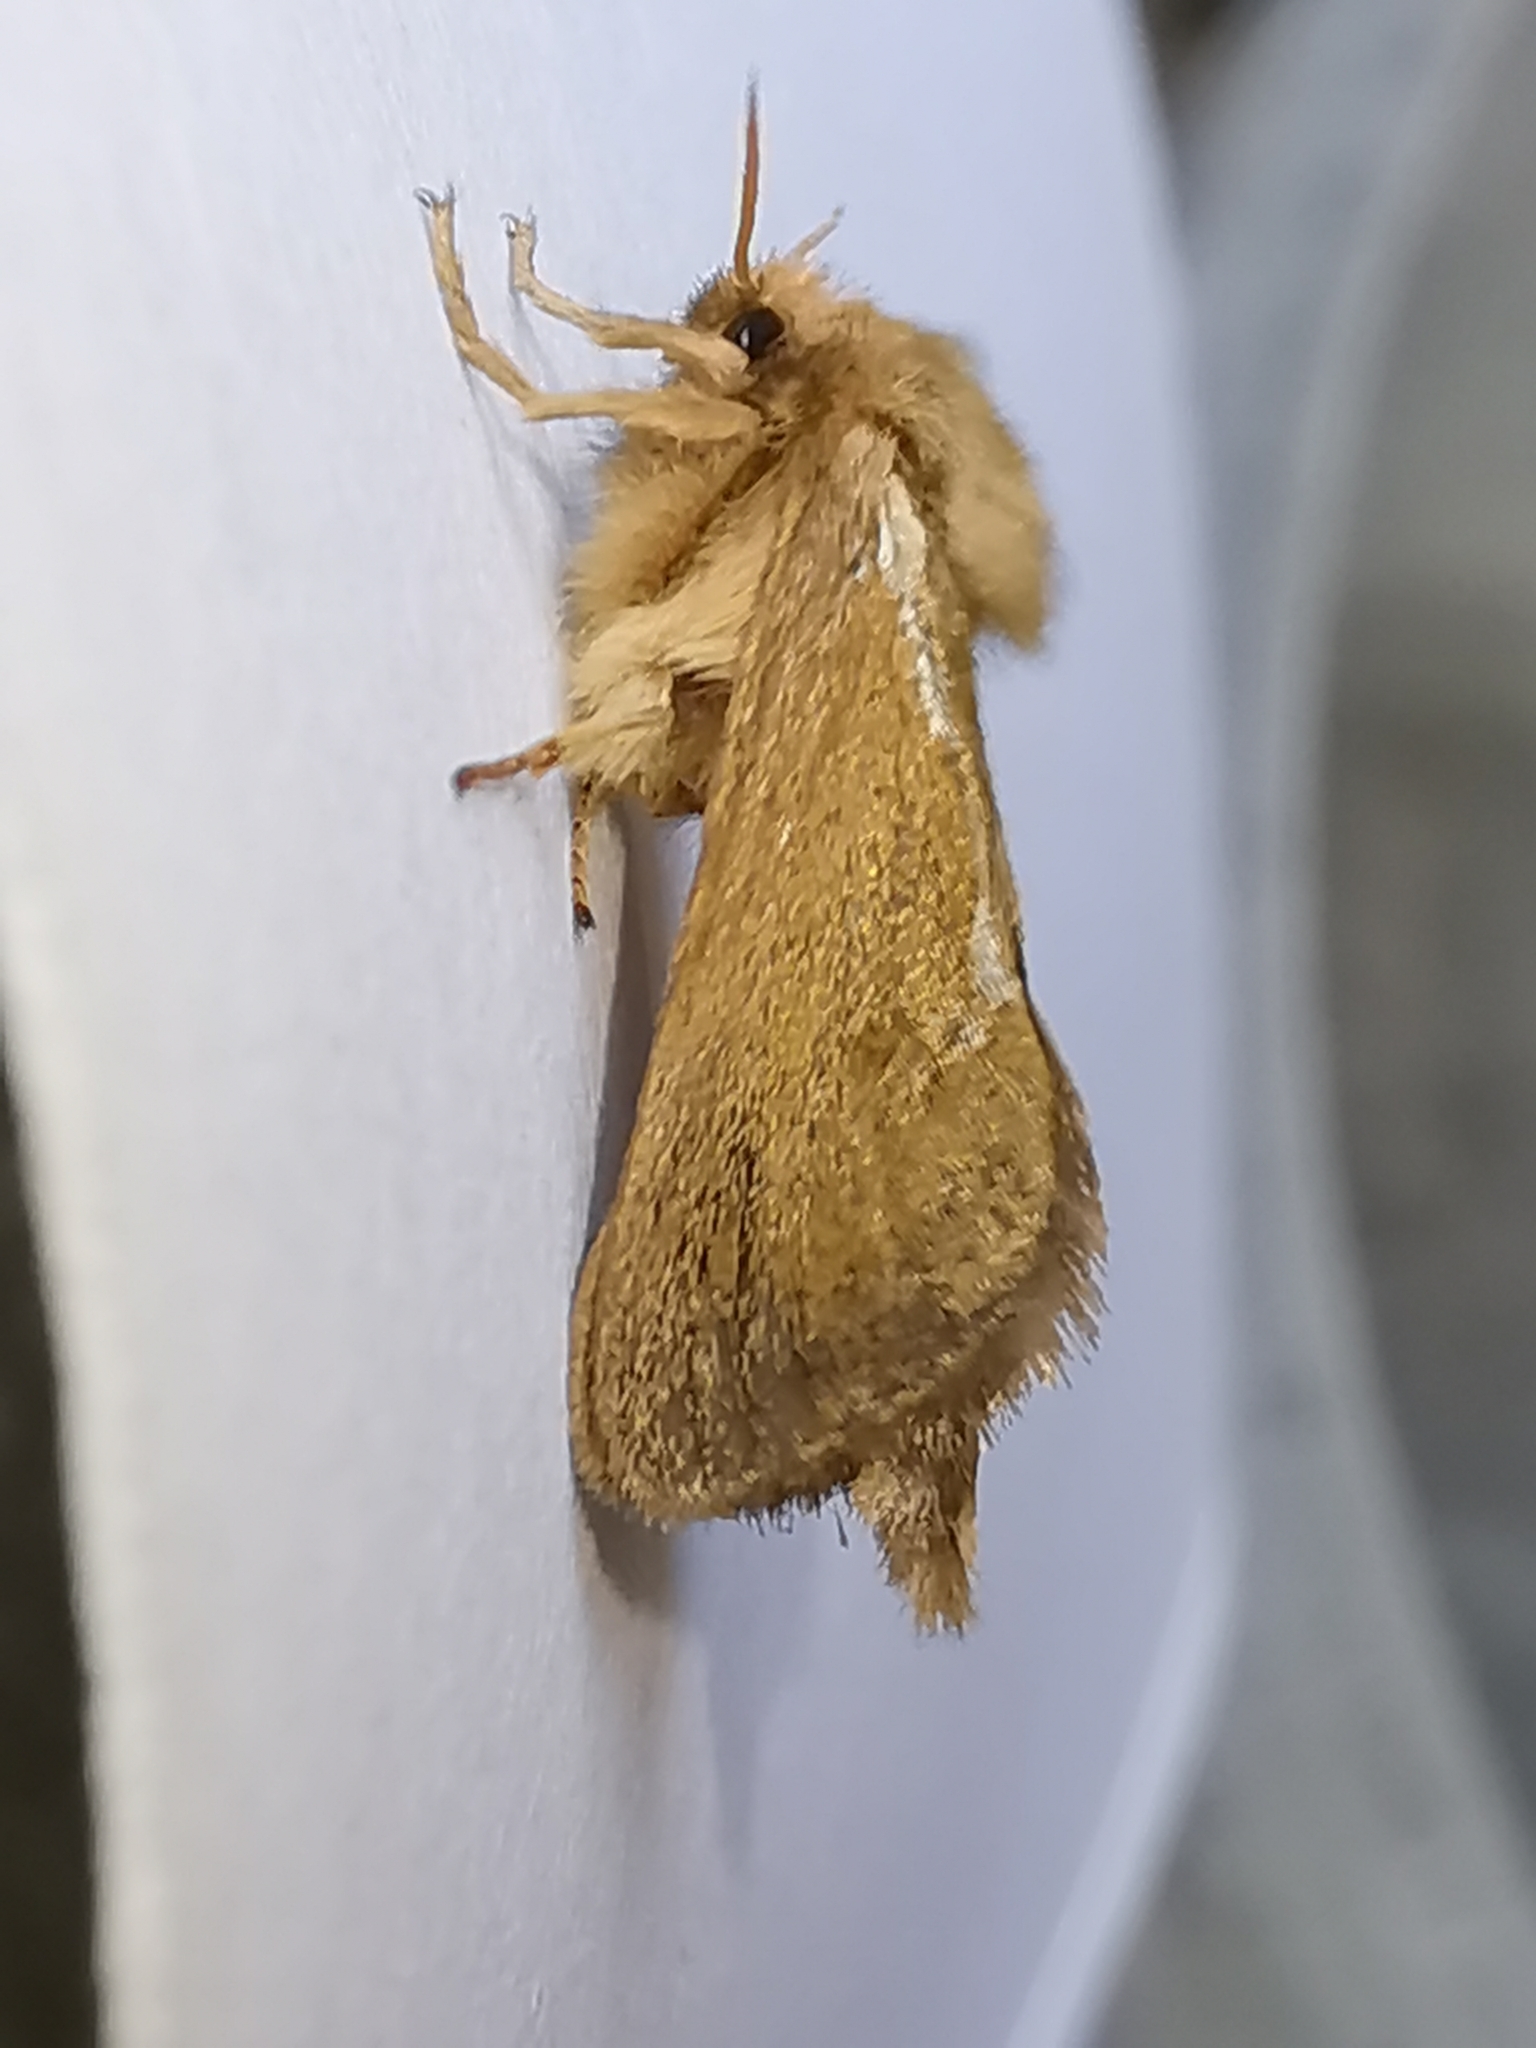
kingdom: Animalia
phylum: Arthropoda
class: Insecta
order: Lepidoptera
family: Hepialidae
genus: Korscheltellus
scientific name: Korscheltellus lupulina
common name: Common swift
